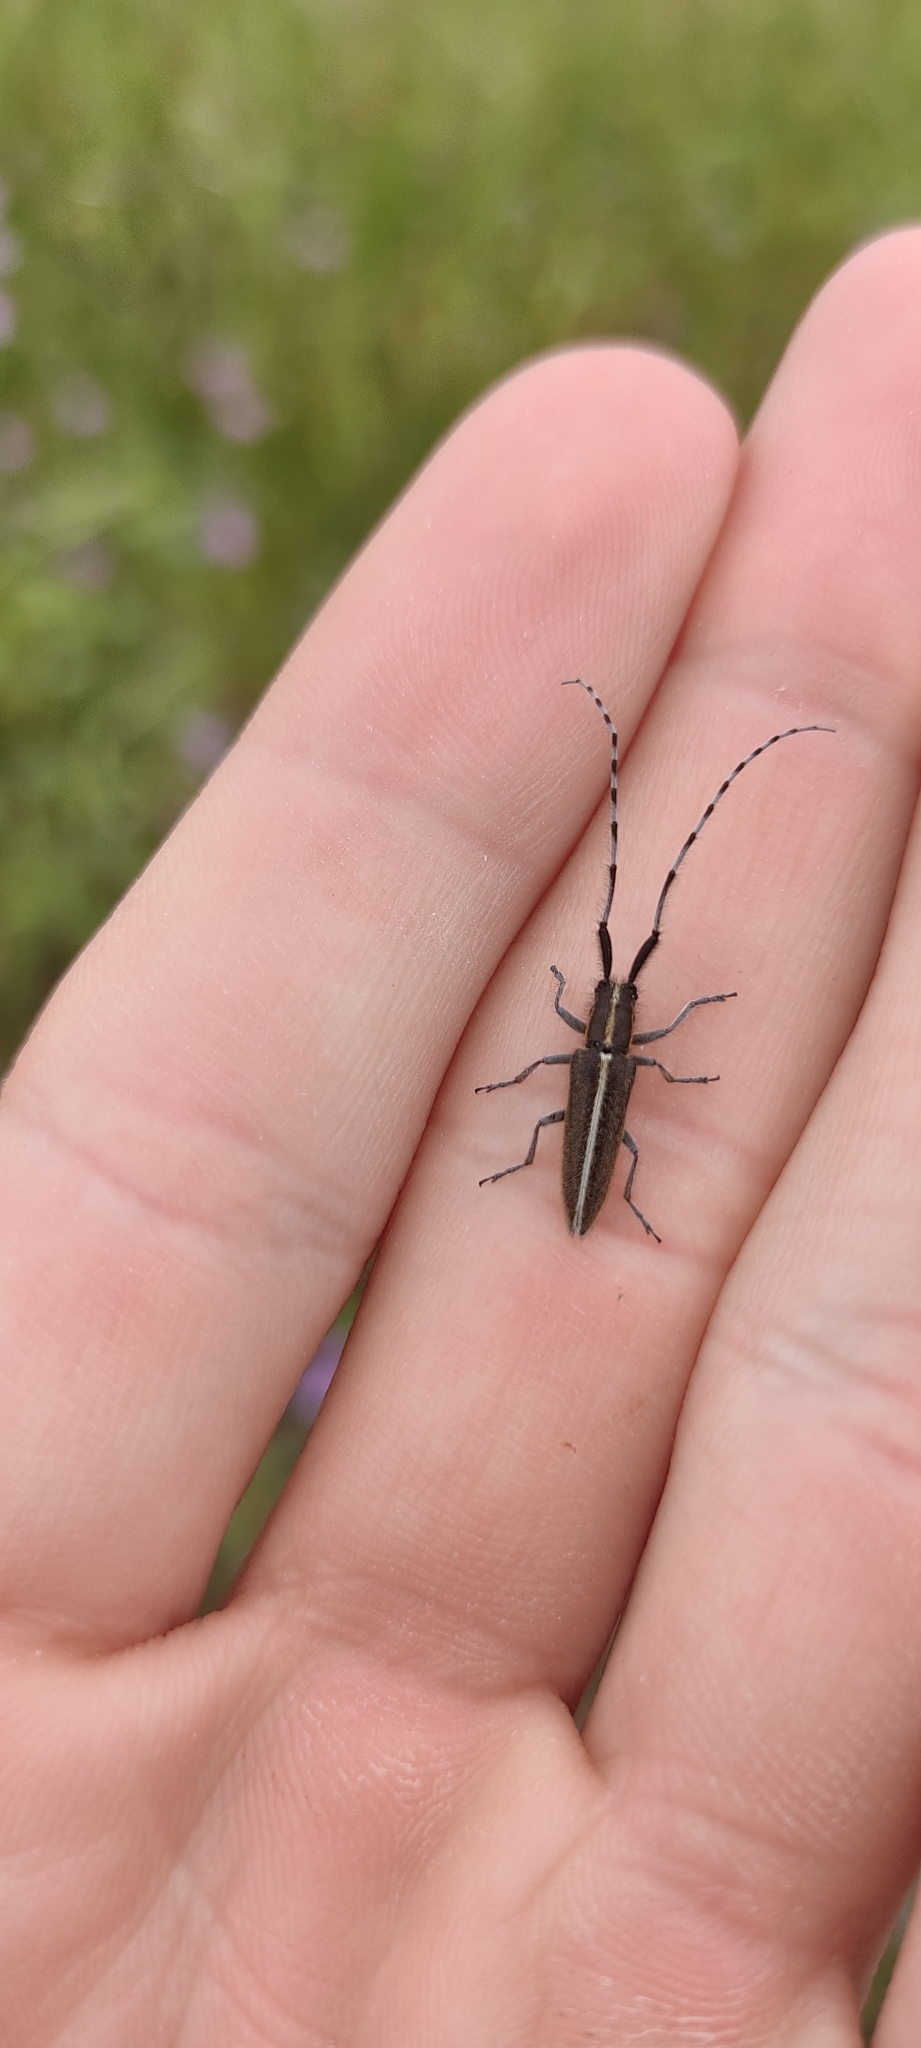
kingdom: Animalia
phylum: Arthropoda
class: Insecta
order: Coleoptera
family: Cerambycidae
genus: Agapanthia
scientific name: Agapanthia suturalis
